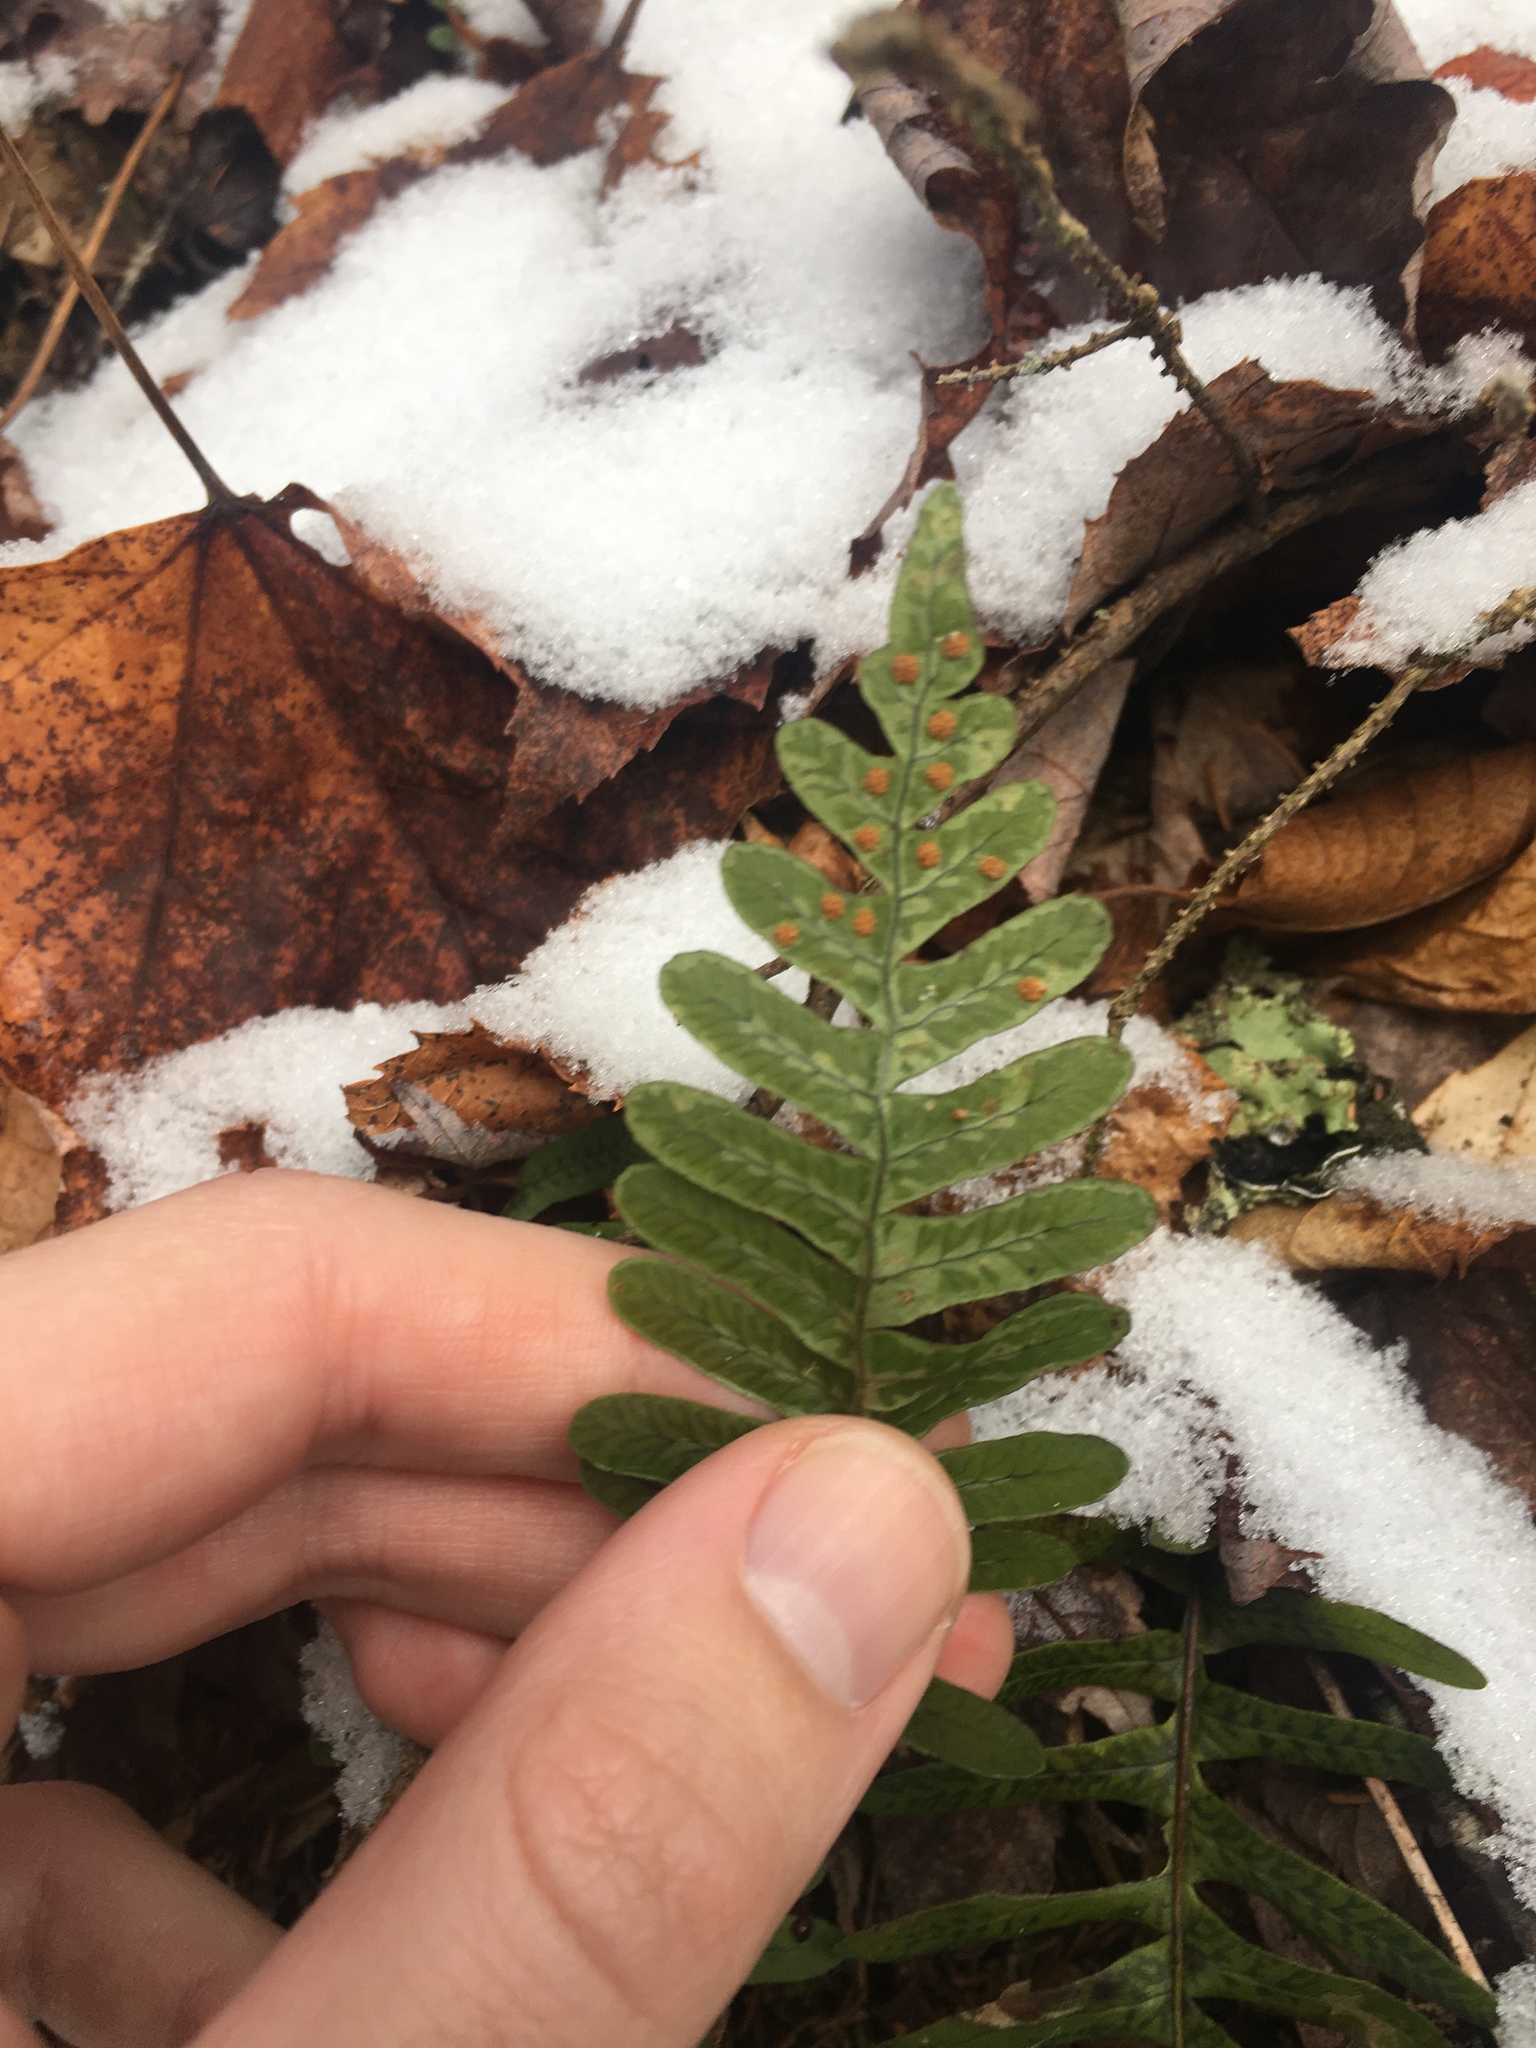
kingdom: Plantae
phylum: Tracheophyta
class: Polypodiopsida
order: Polypodiales
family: Polypodiaceae
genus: Polypodium
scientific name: Polypodium virginianum
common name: American wall fern
